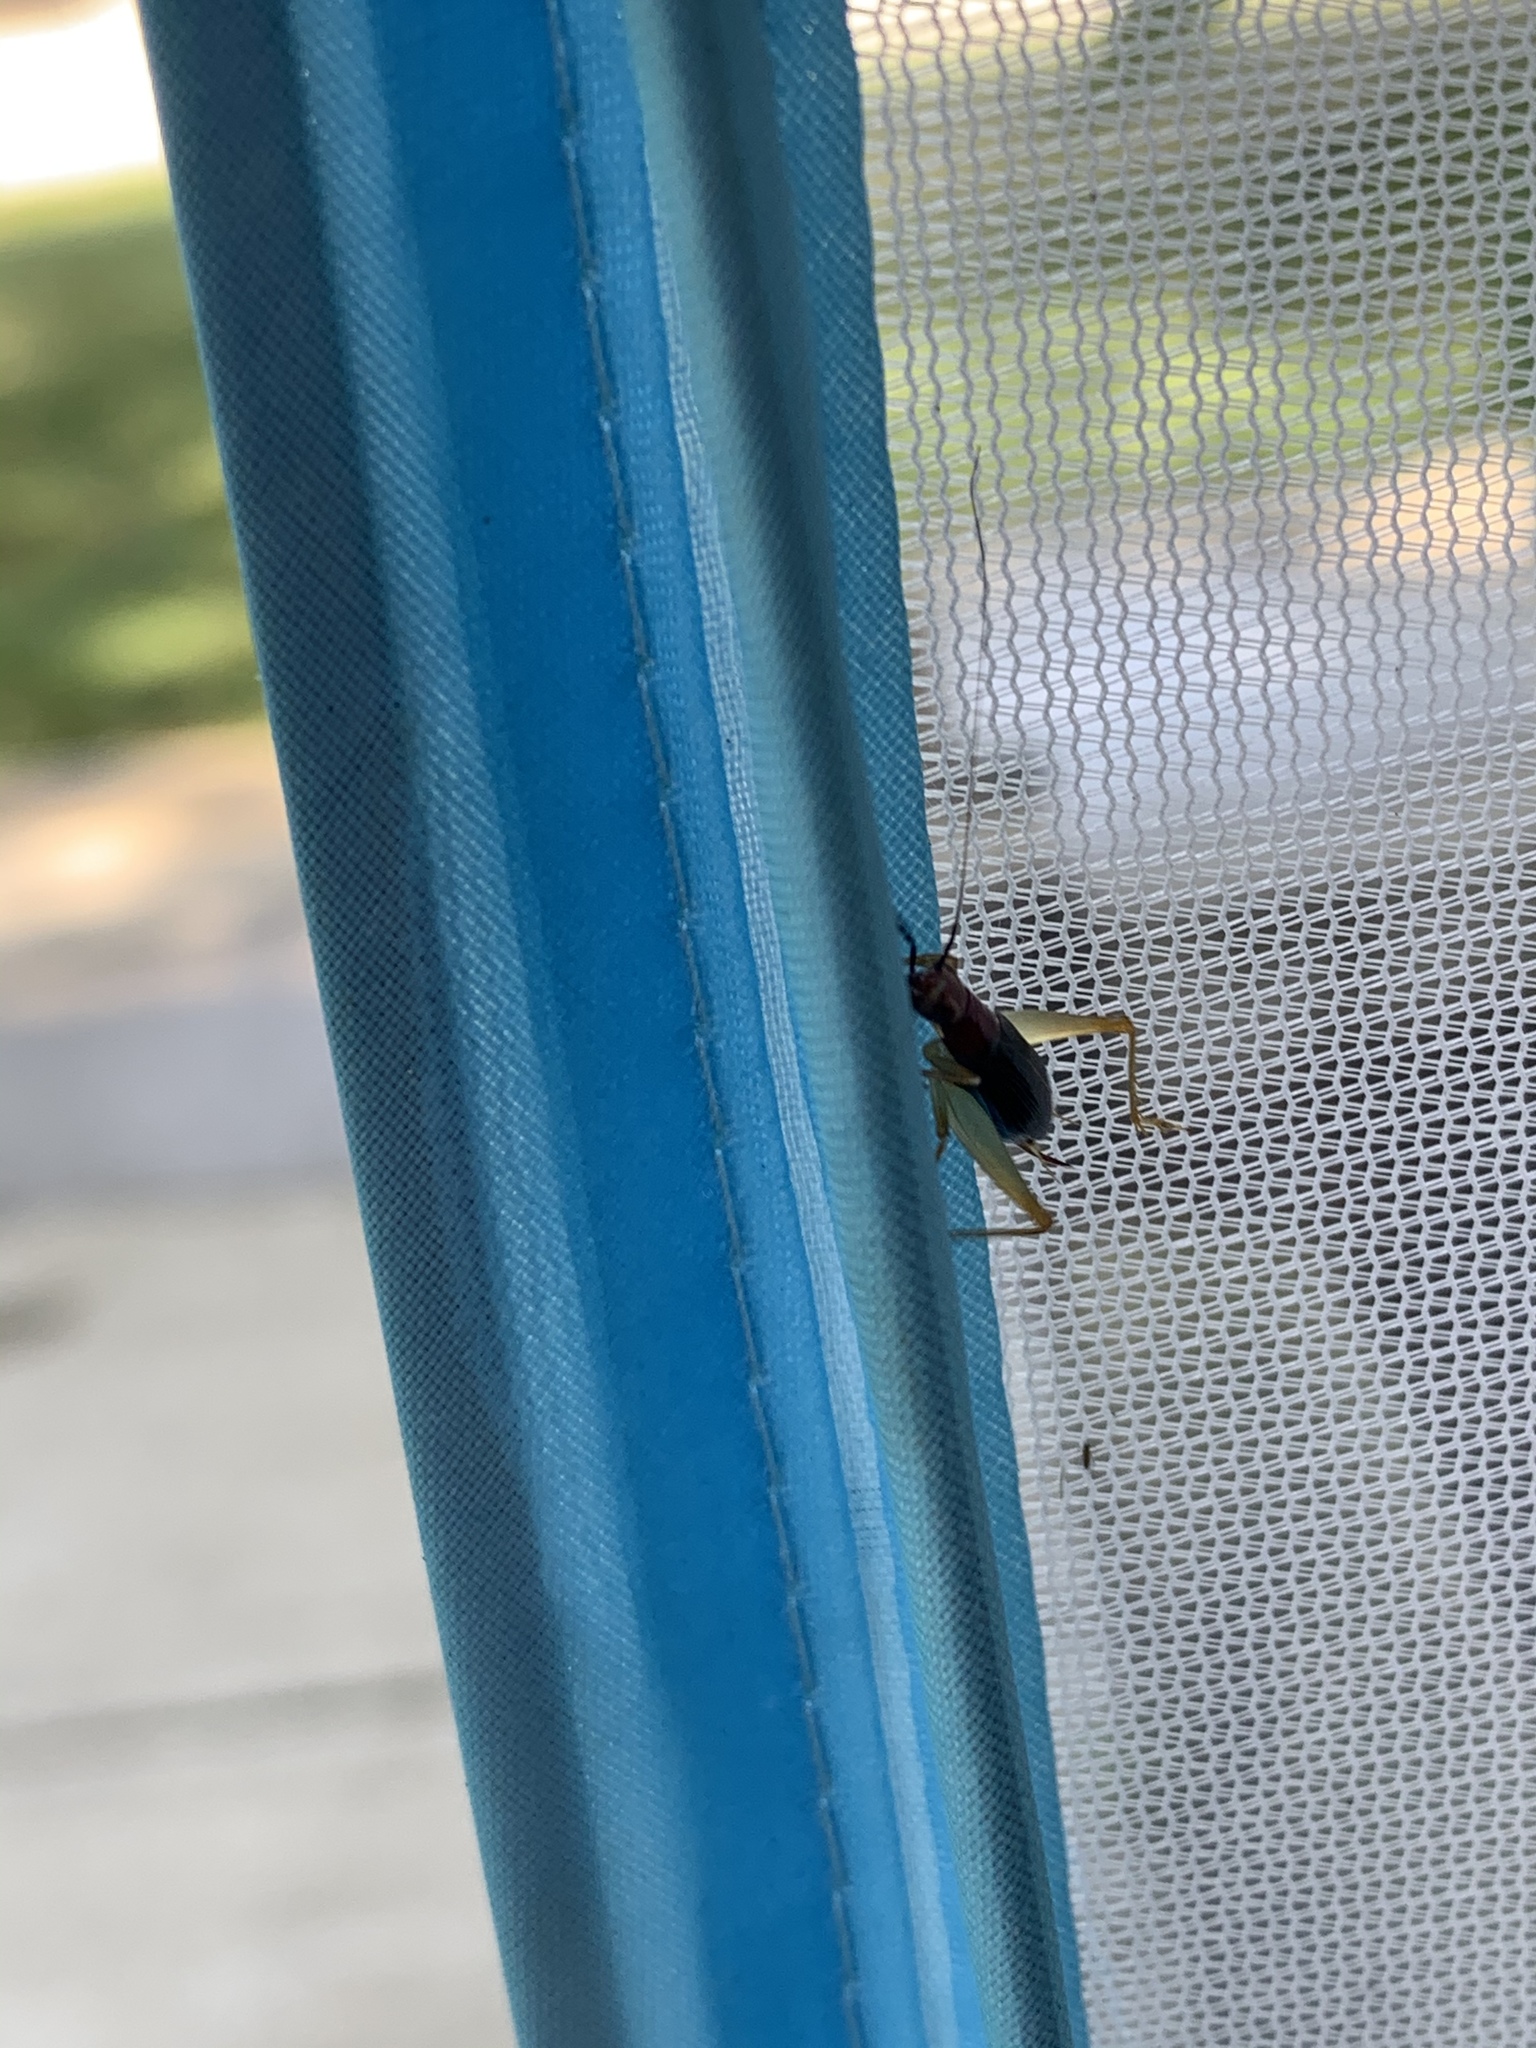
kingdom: Animalia
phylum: Arthropoda
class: Insecta
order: Orthoptera
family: Trigonidiidae
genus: Phyllopalpus
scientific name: Phyllopalpus pulchellus
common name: Handsome trig
